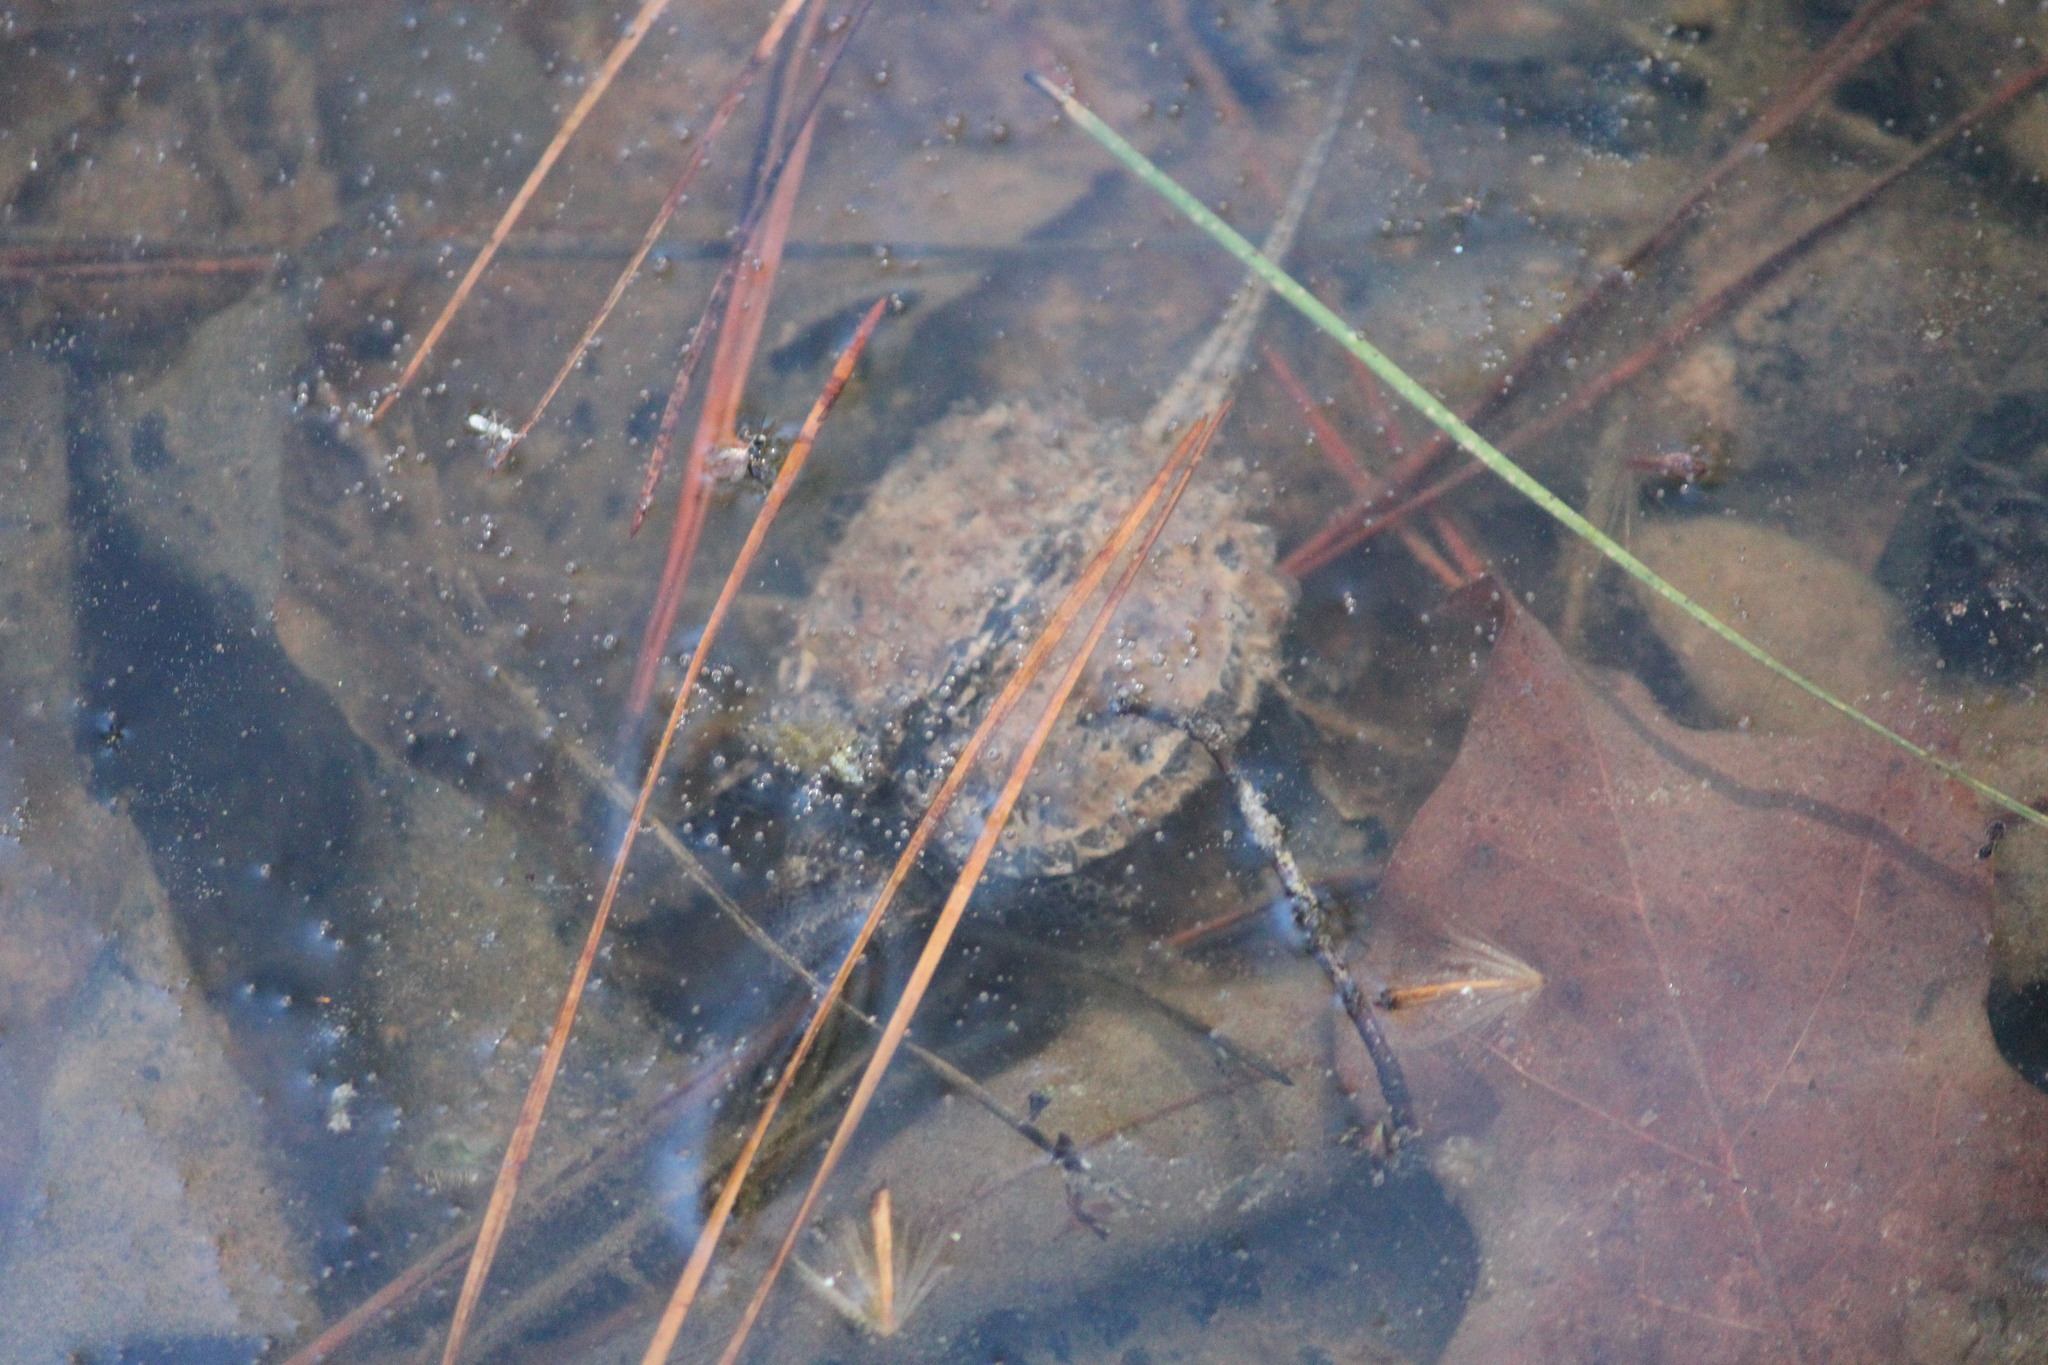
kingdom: Animalia
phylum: Chordata
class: Testudines
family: Chelydridae
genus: Chelydra
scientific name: Chelydra serpentina
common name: Common snapping turtle
